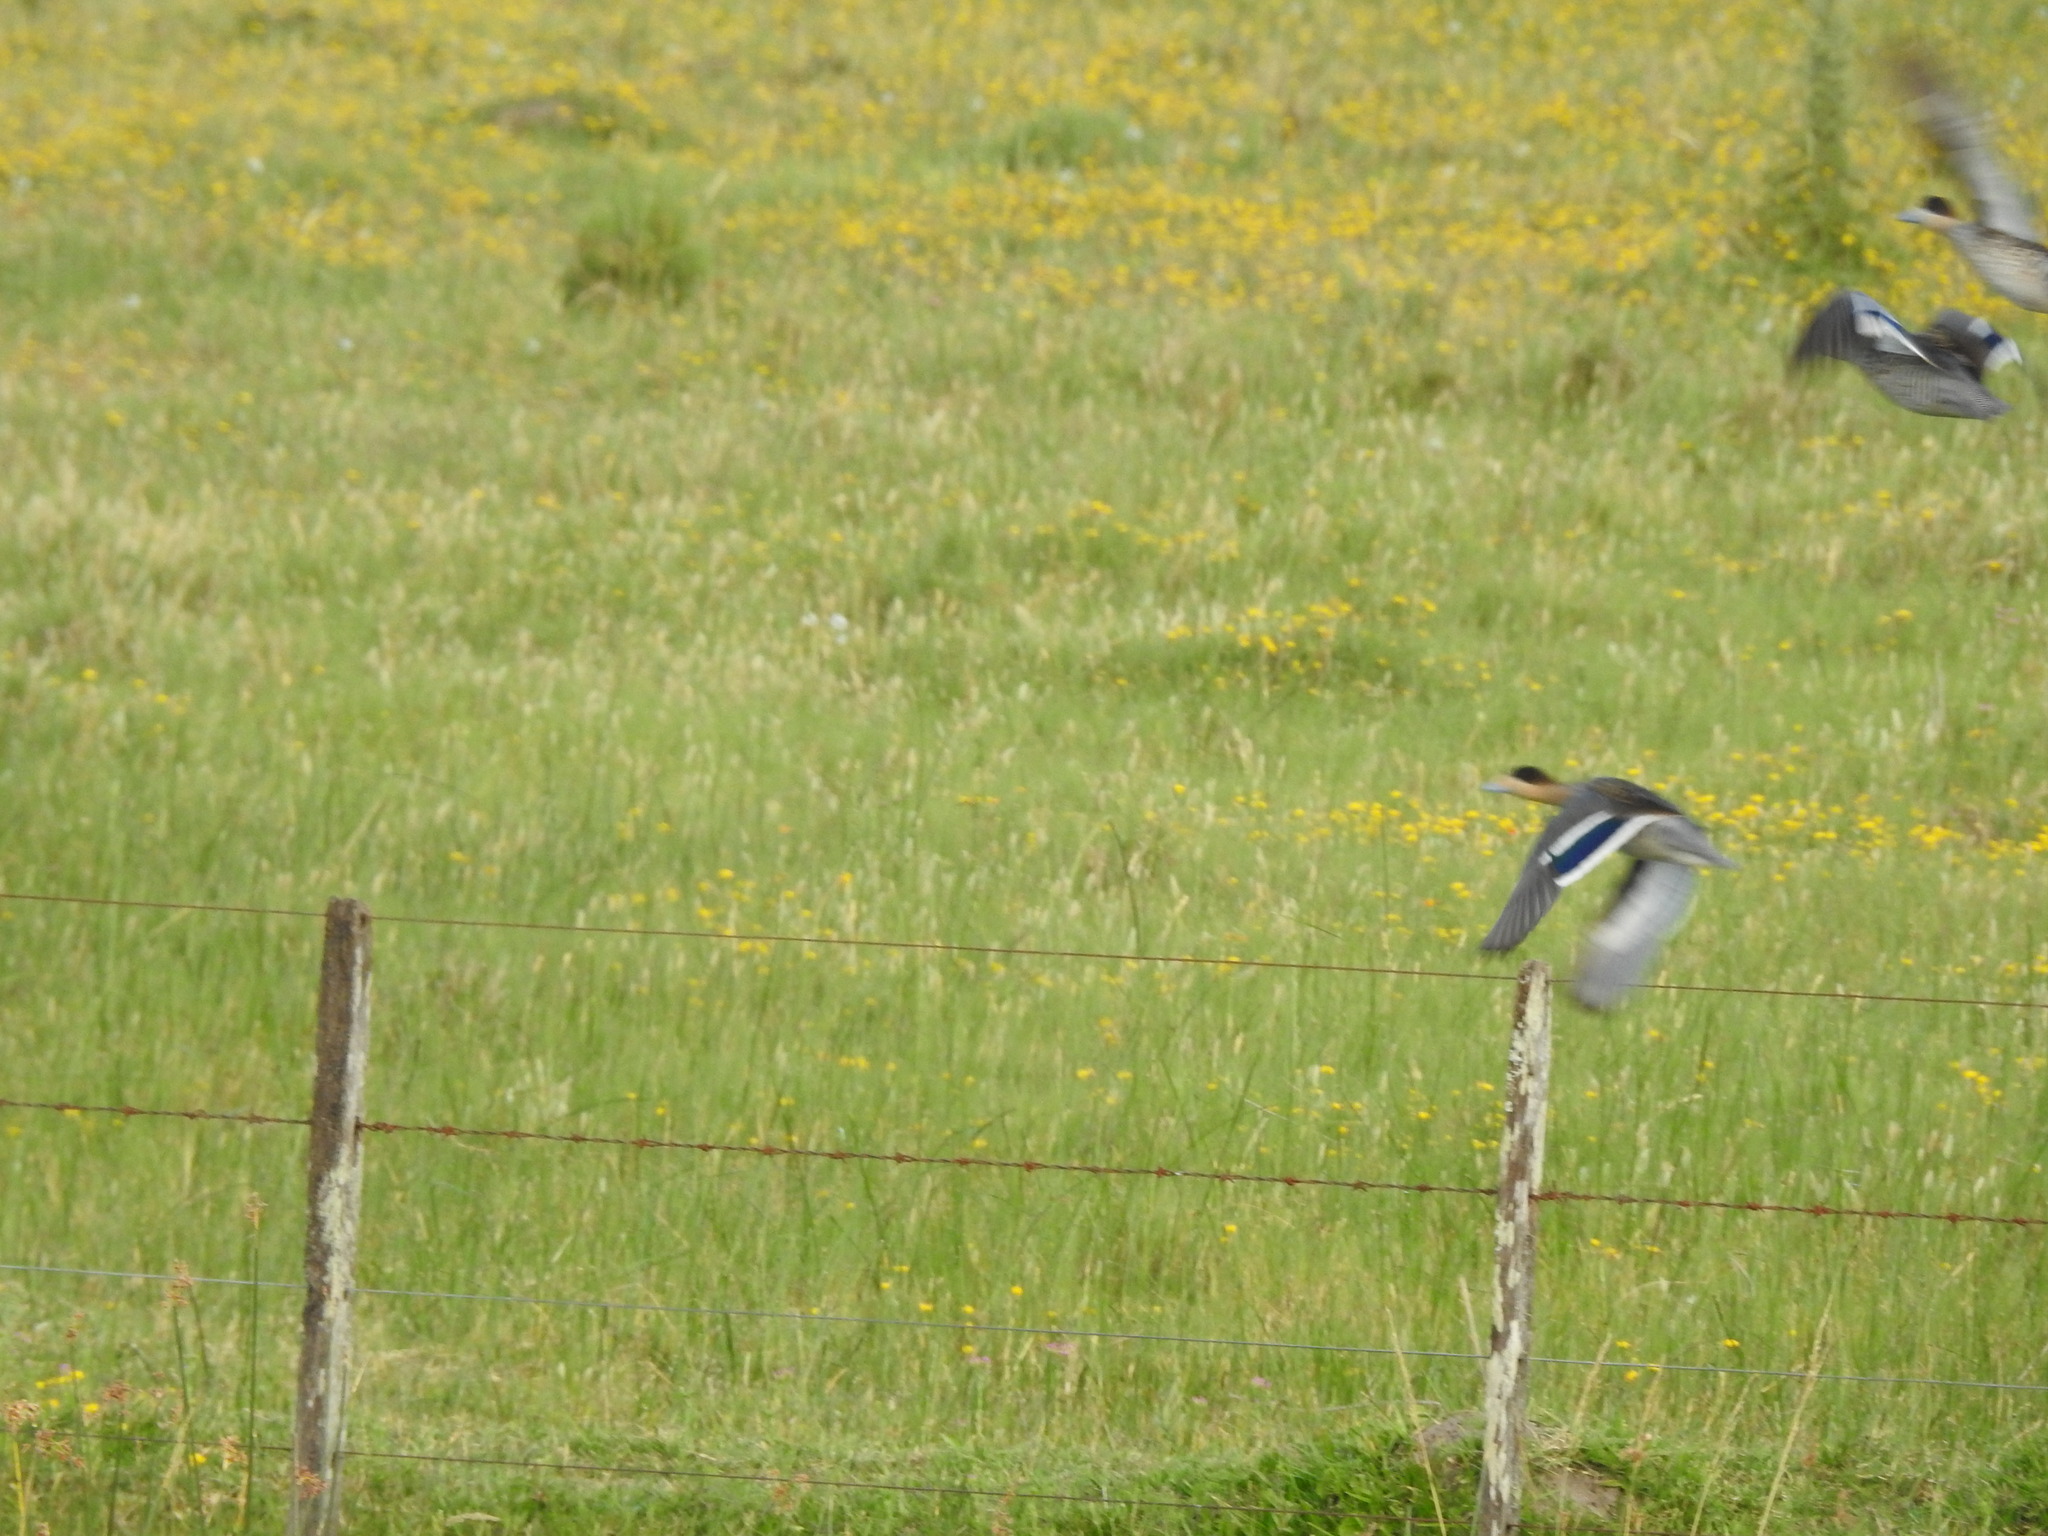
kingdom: Animalia
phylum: Chordata
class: Aves
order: Anseriformes
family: Anatidae
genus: Spatula
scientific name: Spatula versicolor
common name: Silver teal
